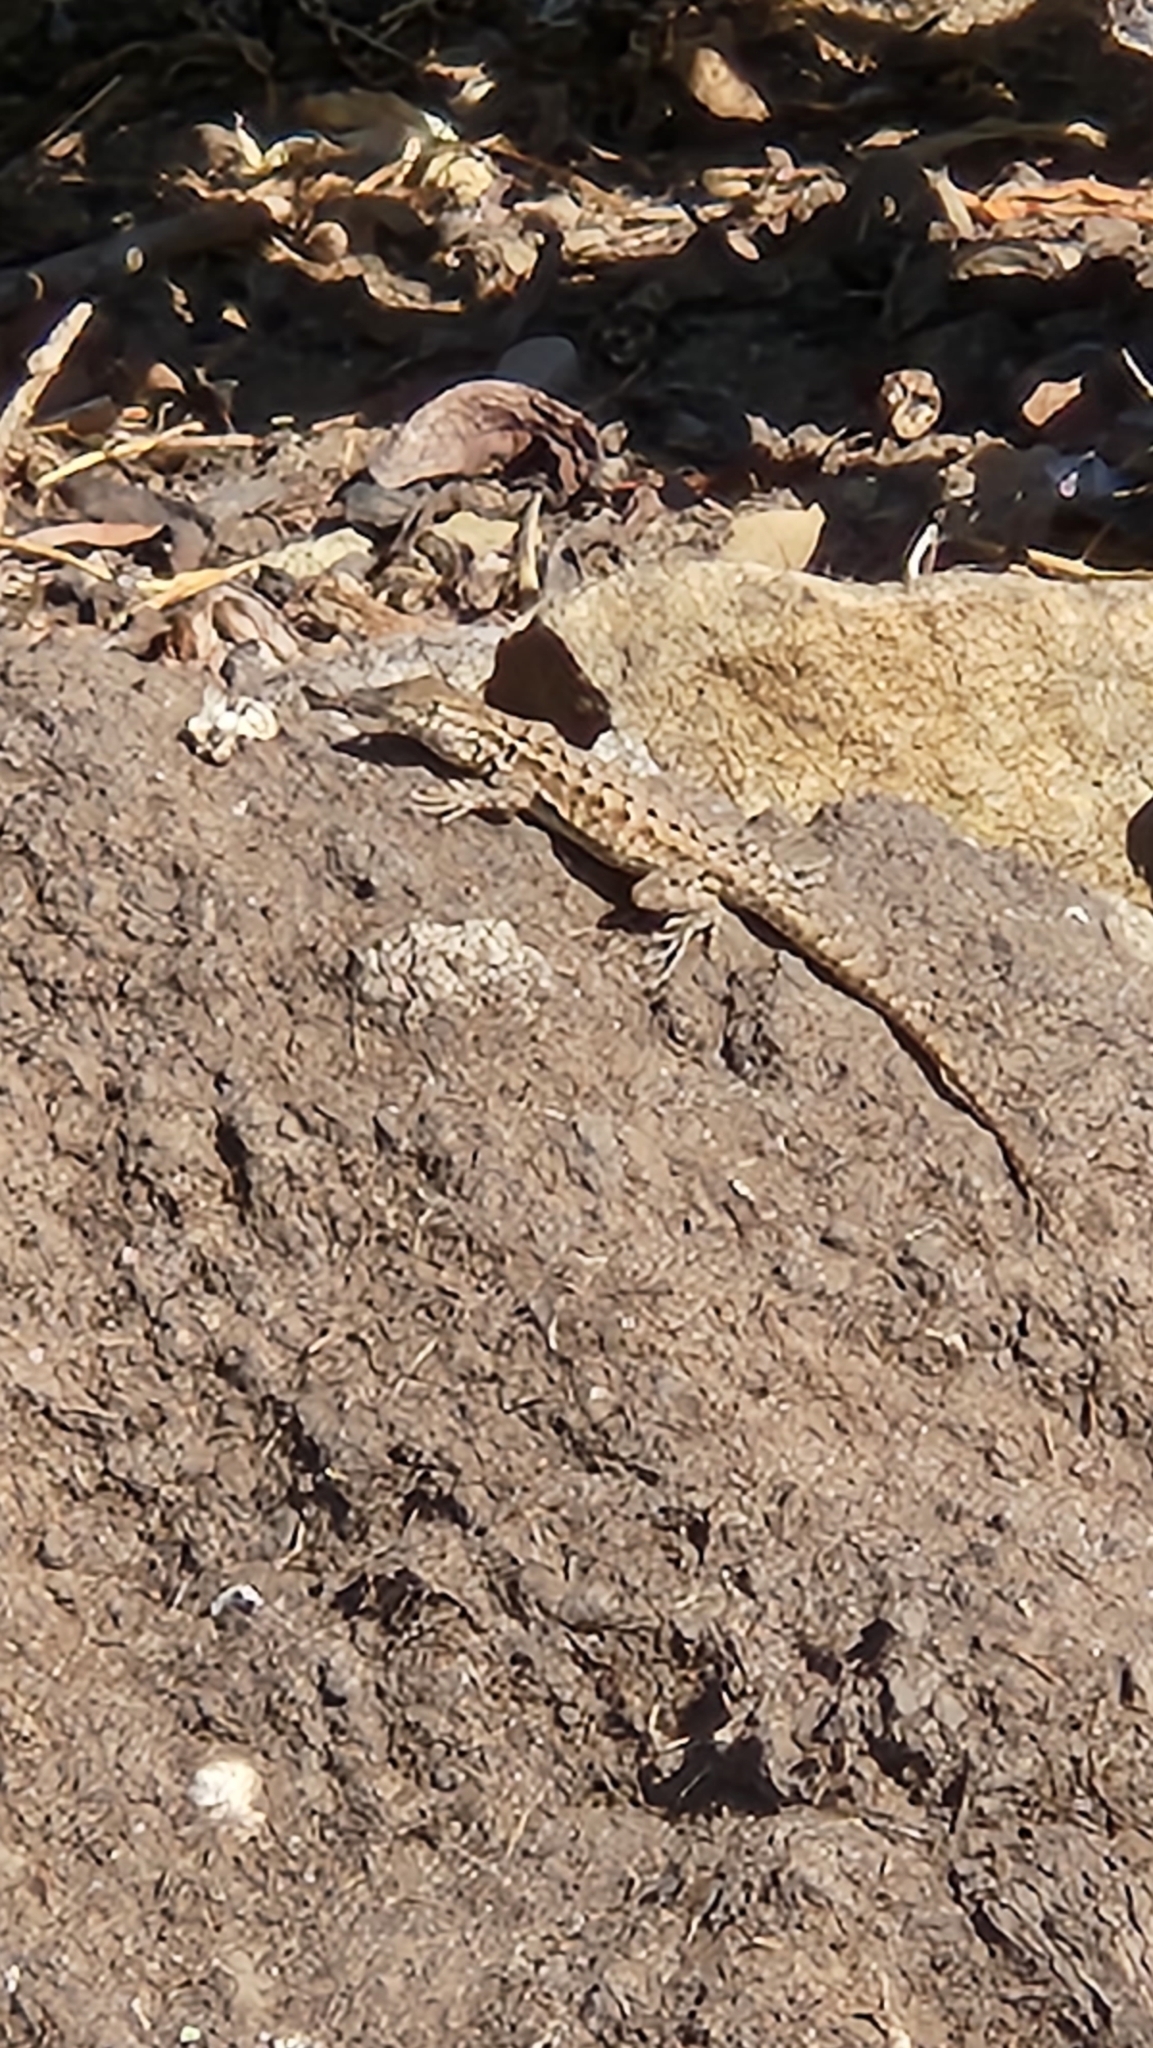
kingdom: Animalia
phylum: Chordata
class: Squamata
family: Phrynosomatidae
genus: Uta
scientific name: Uta stansburiana
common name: Side-blotched lizard
